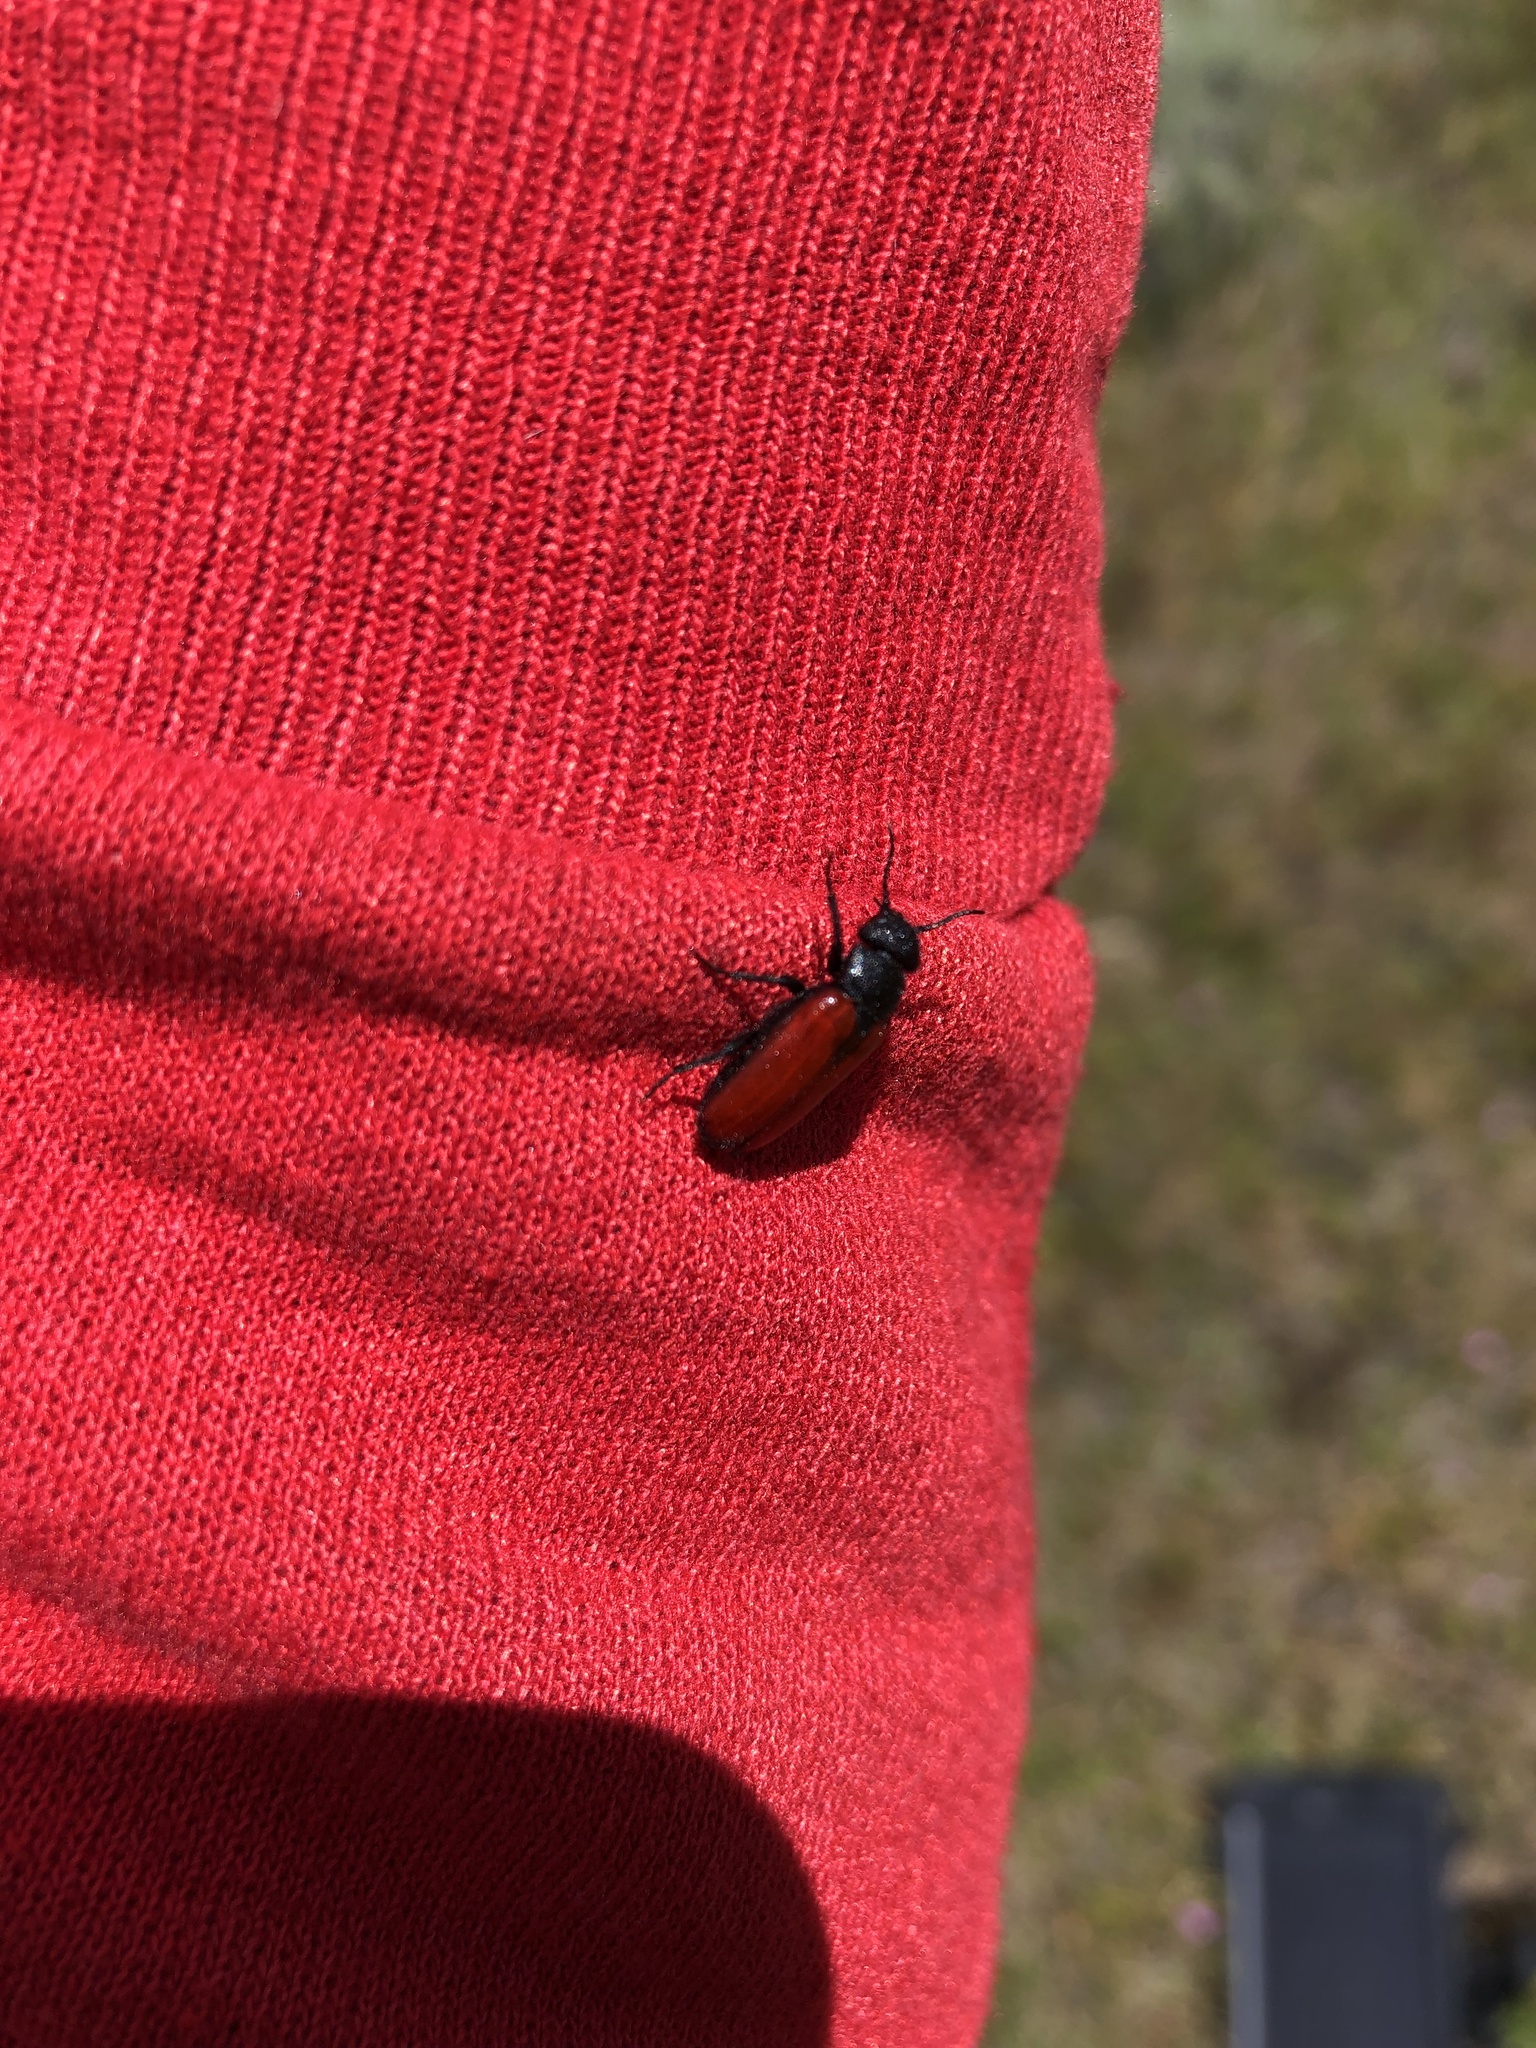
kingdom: Animalia
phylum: Arthropoda
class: Insecta
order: Coleoptera
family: Meloidae
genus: Tricrania
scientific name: Tricrania stansburii
